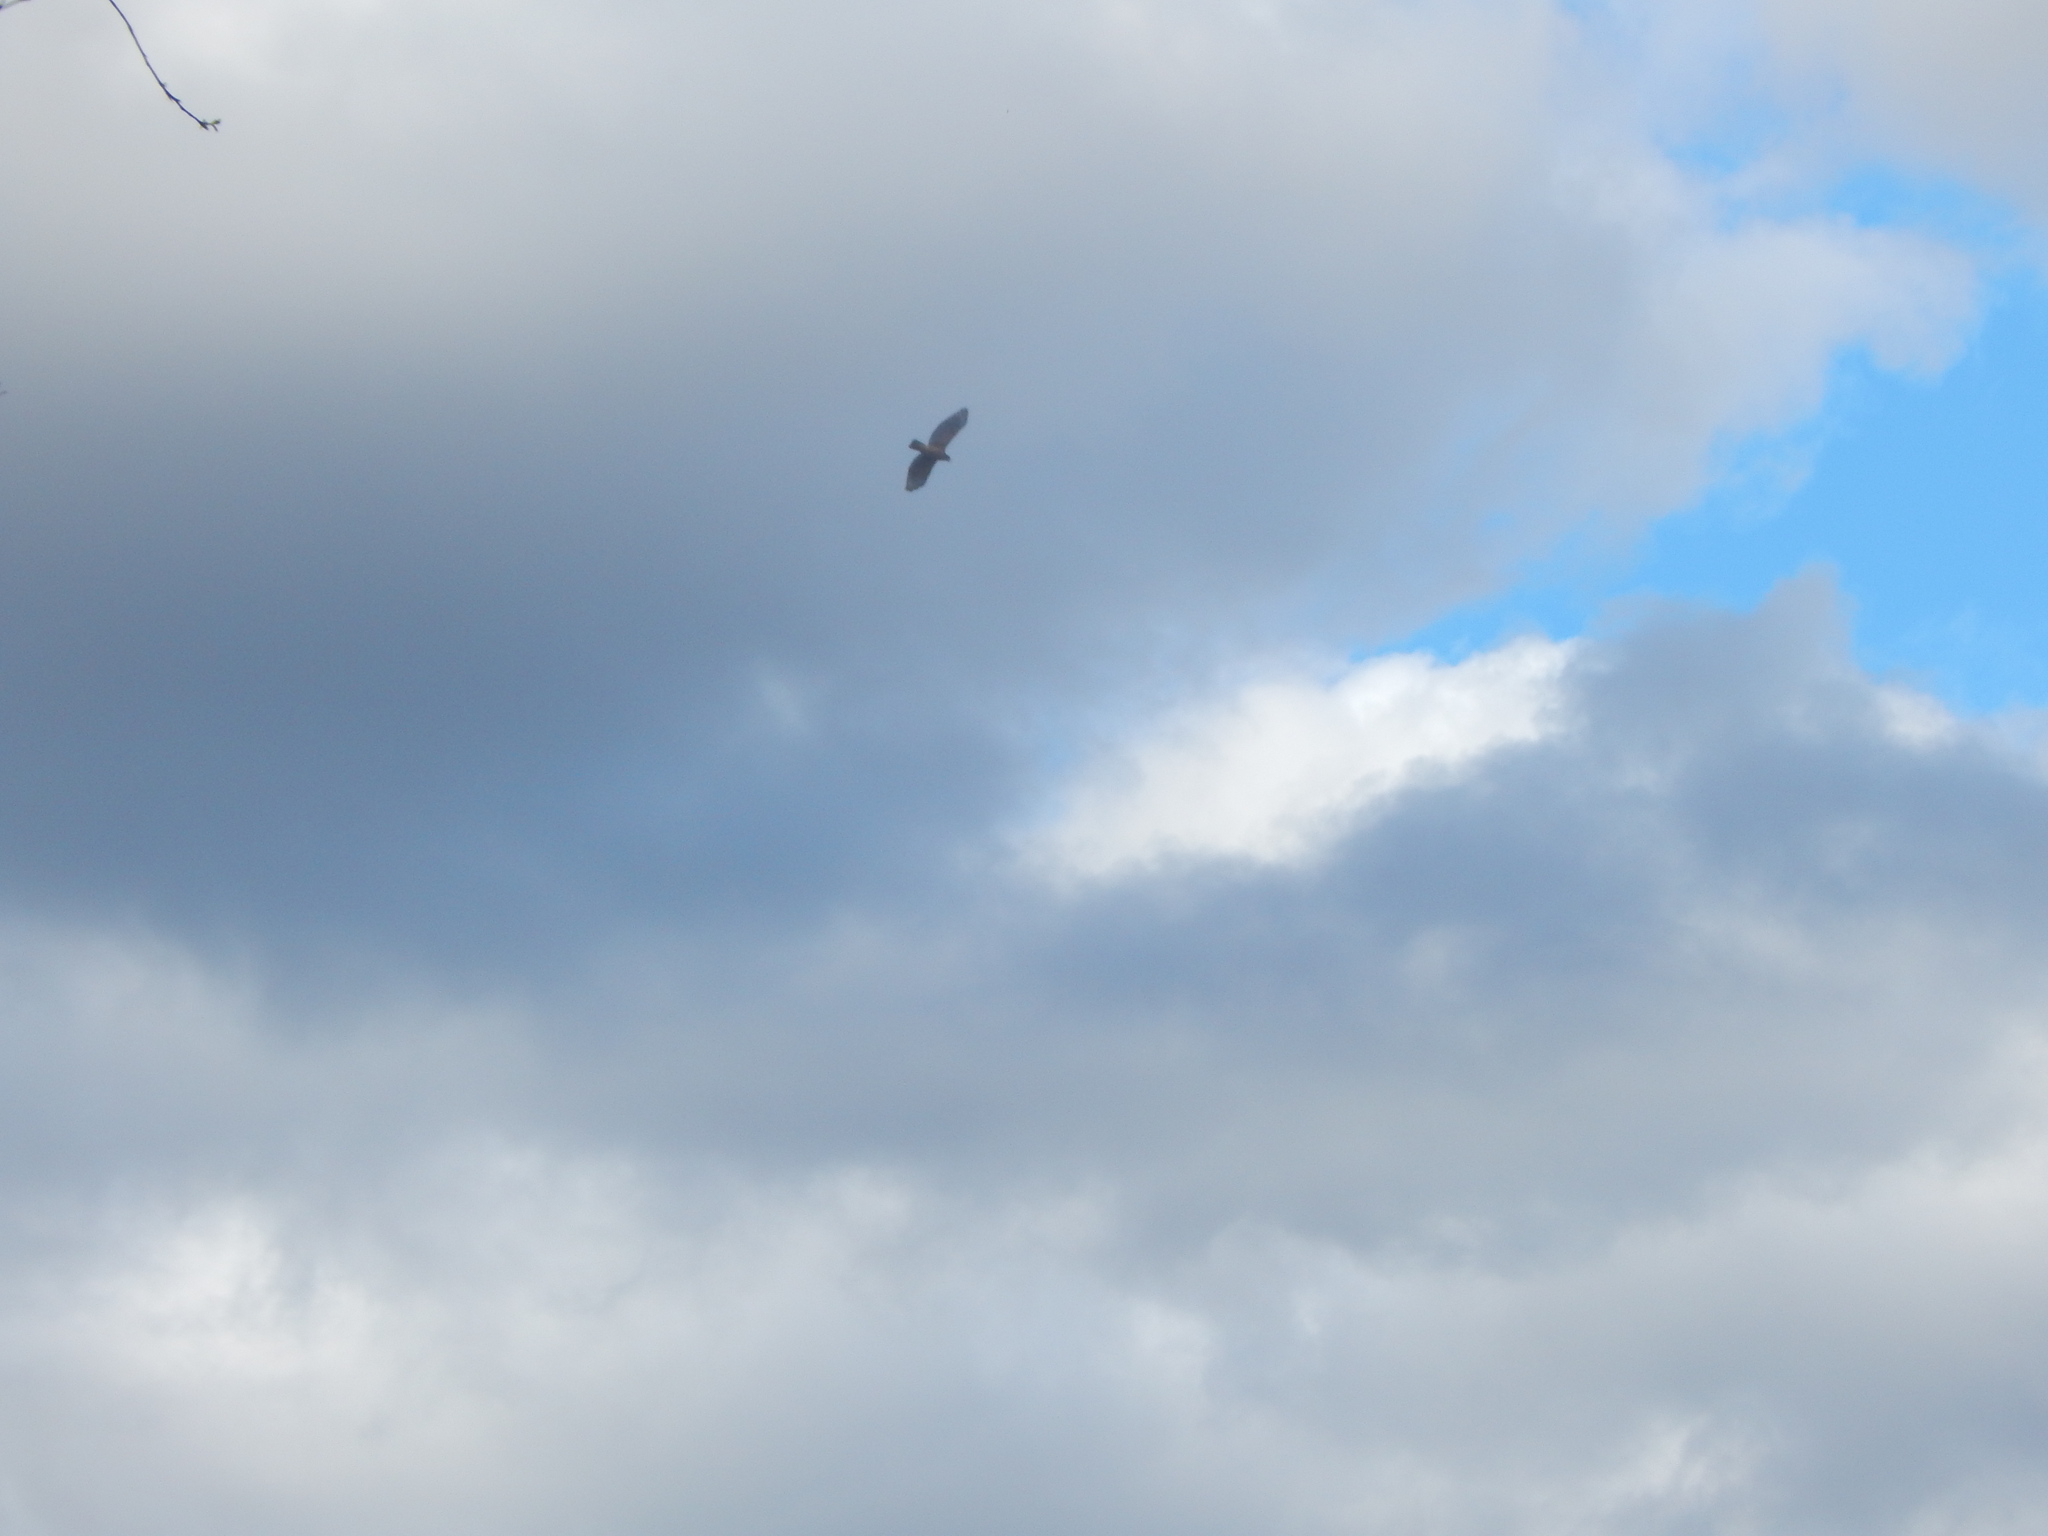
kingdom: Animalia
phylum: Chordata
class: Aves
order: Accipitriformes
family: Accipitridae
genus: Buteo
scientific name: Buteo lineatus
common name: Red-shouldered hawk
